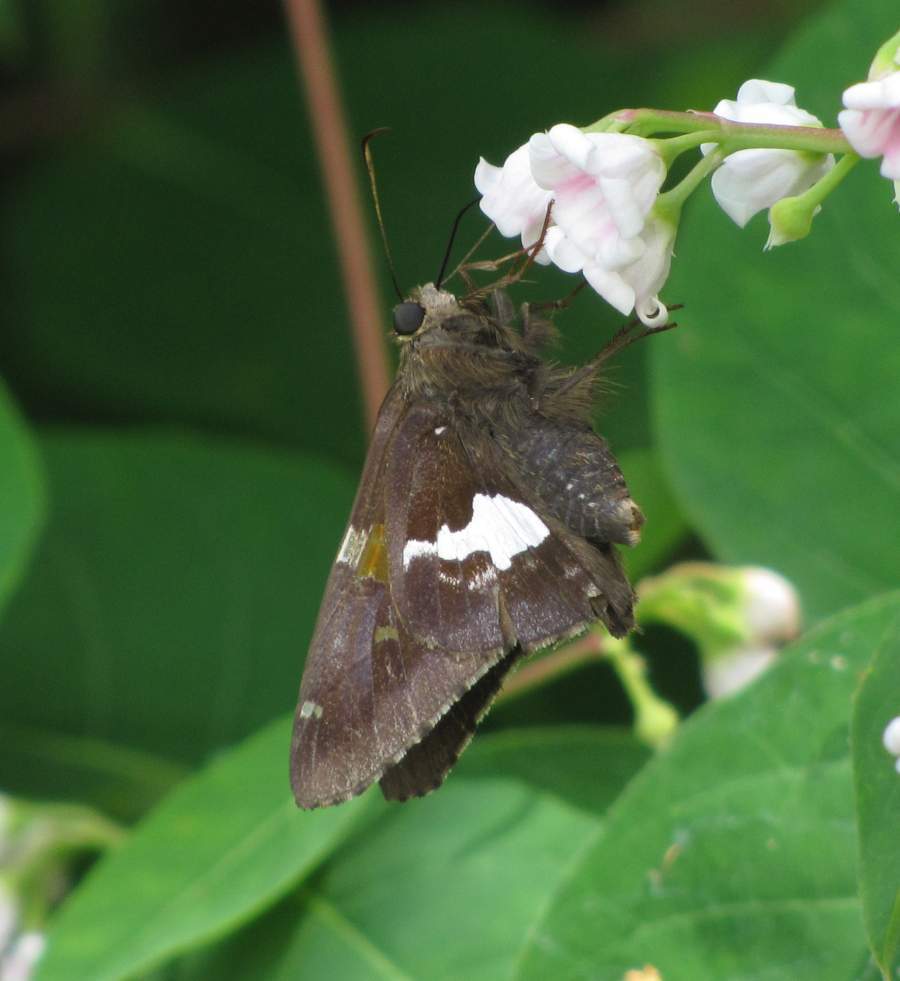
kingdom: Animalia
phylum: Arthropoda
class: Insecta
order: Lepidoptera
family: Hesperiidae
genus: Epargyreus
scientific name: Epargyreus clarus
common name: Silver-spotted skipper
